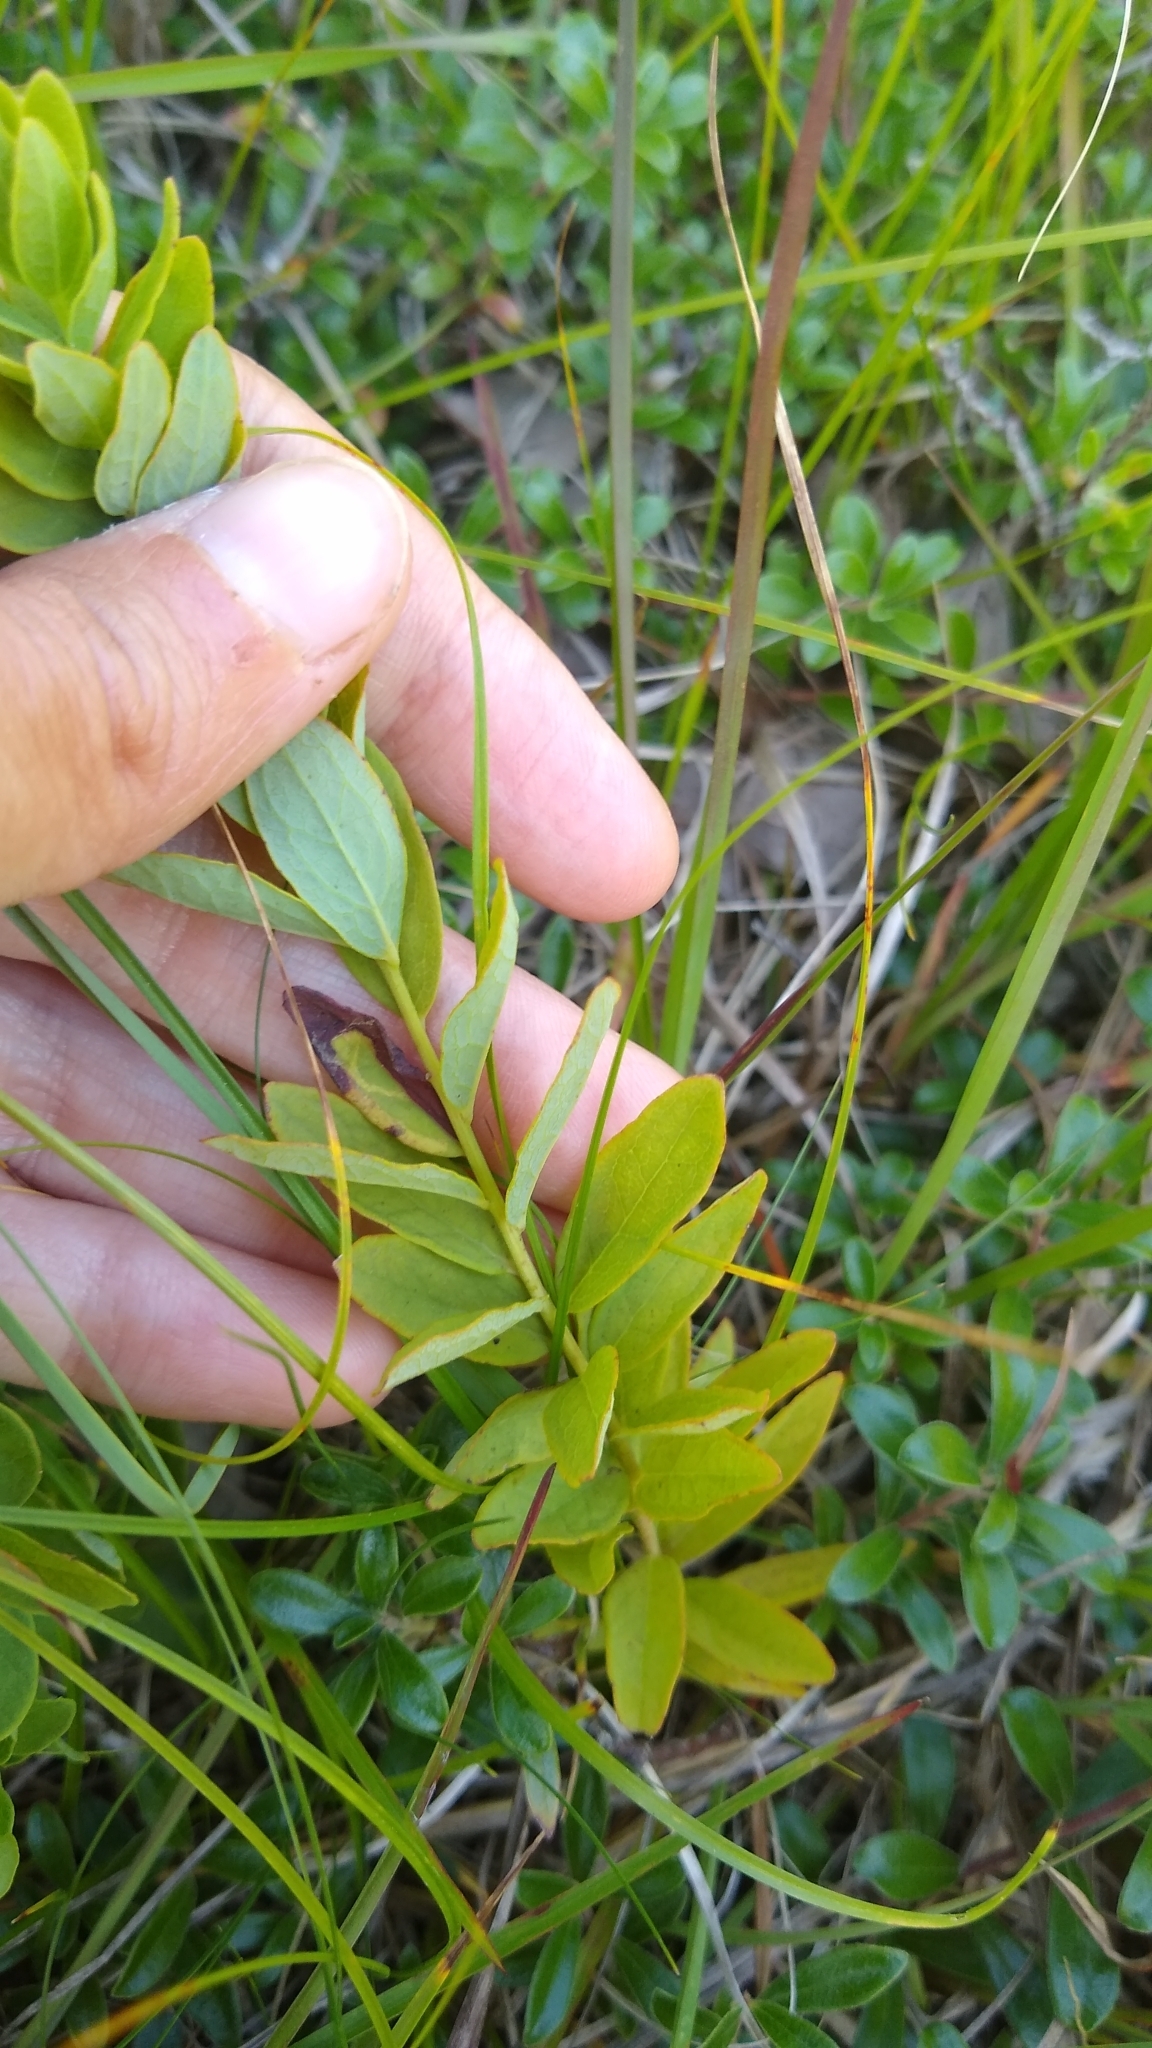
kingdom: Plantae
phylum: Tracheophyta
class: Magnoliopsida
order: Santalales
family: Comandraceae
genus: Comandra
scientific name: Comandra umbellata
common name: Bastard toadflax
